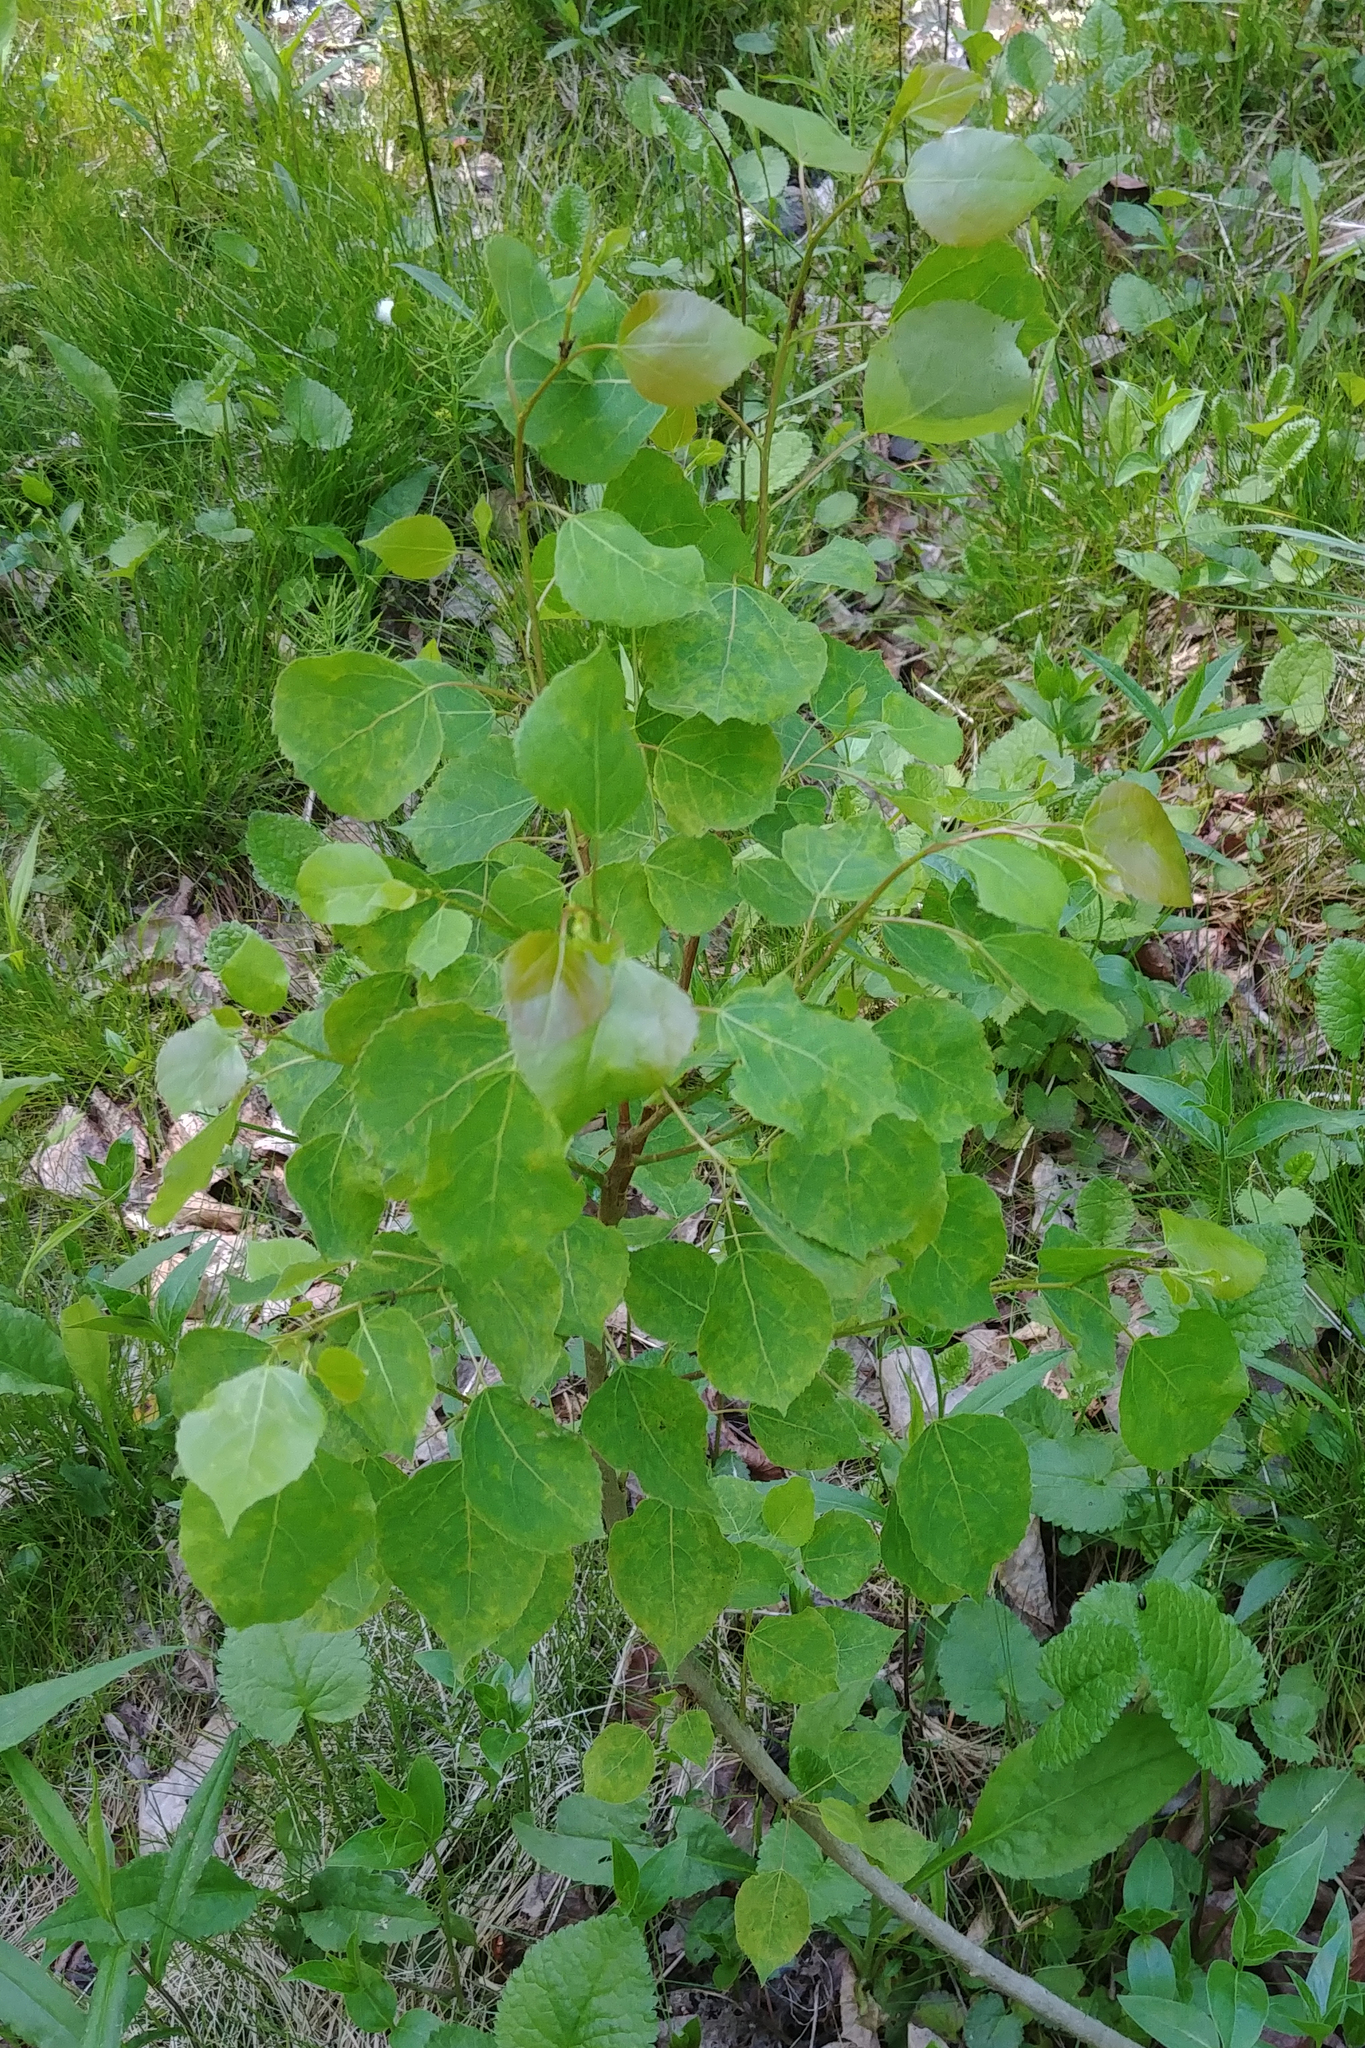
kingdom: Plantae
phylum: Tracheophyta
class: Magnoliopsida
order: Malpighiales
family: Salicaceae
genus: Populus
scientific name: Populus tremuloides
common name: Quaking aspen
